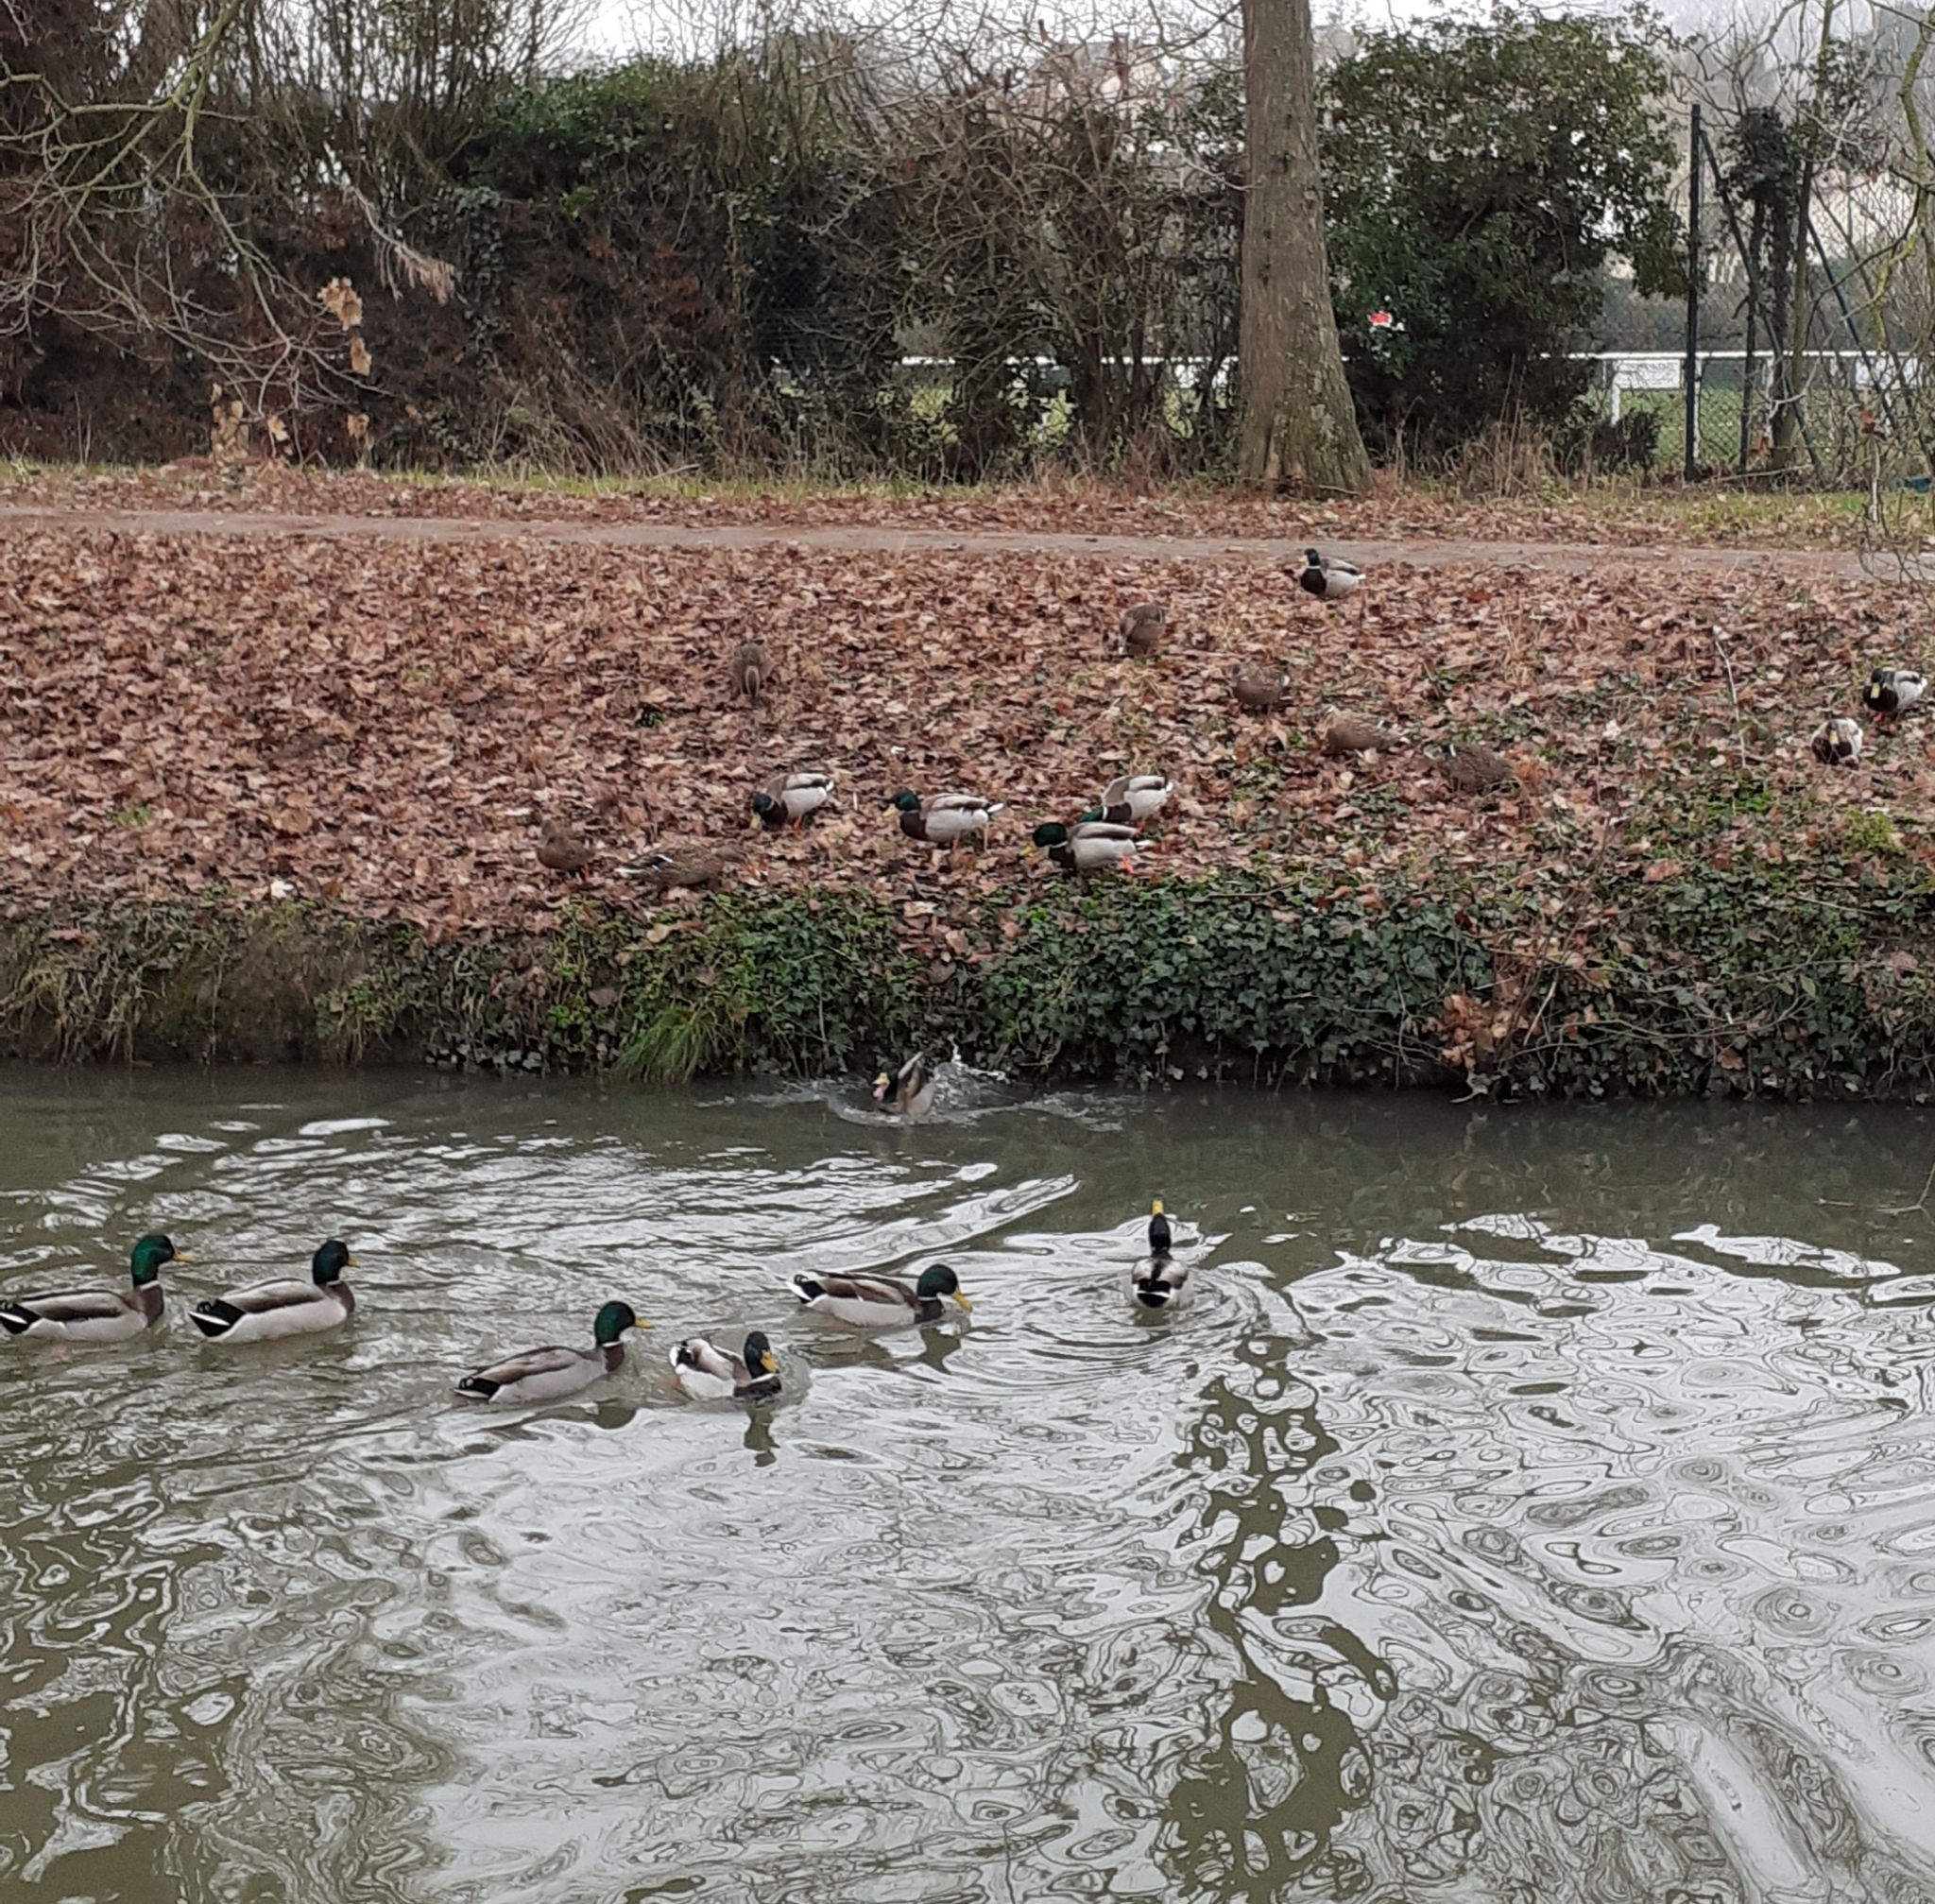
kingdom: Animalia
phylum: Chordata
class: Aves
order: Anseriformes
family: Anatidae
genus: Anas
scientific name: Anas platyrhynchos
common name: Mallard
